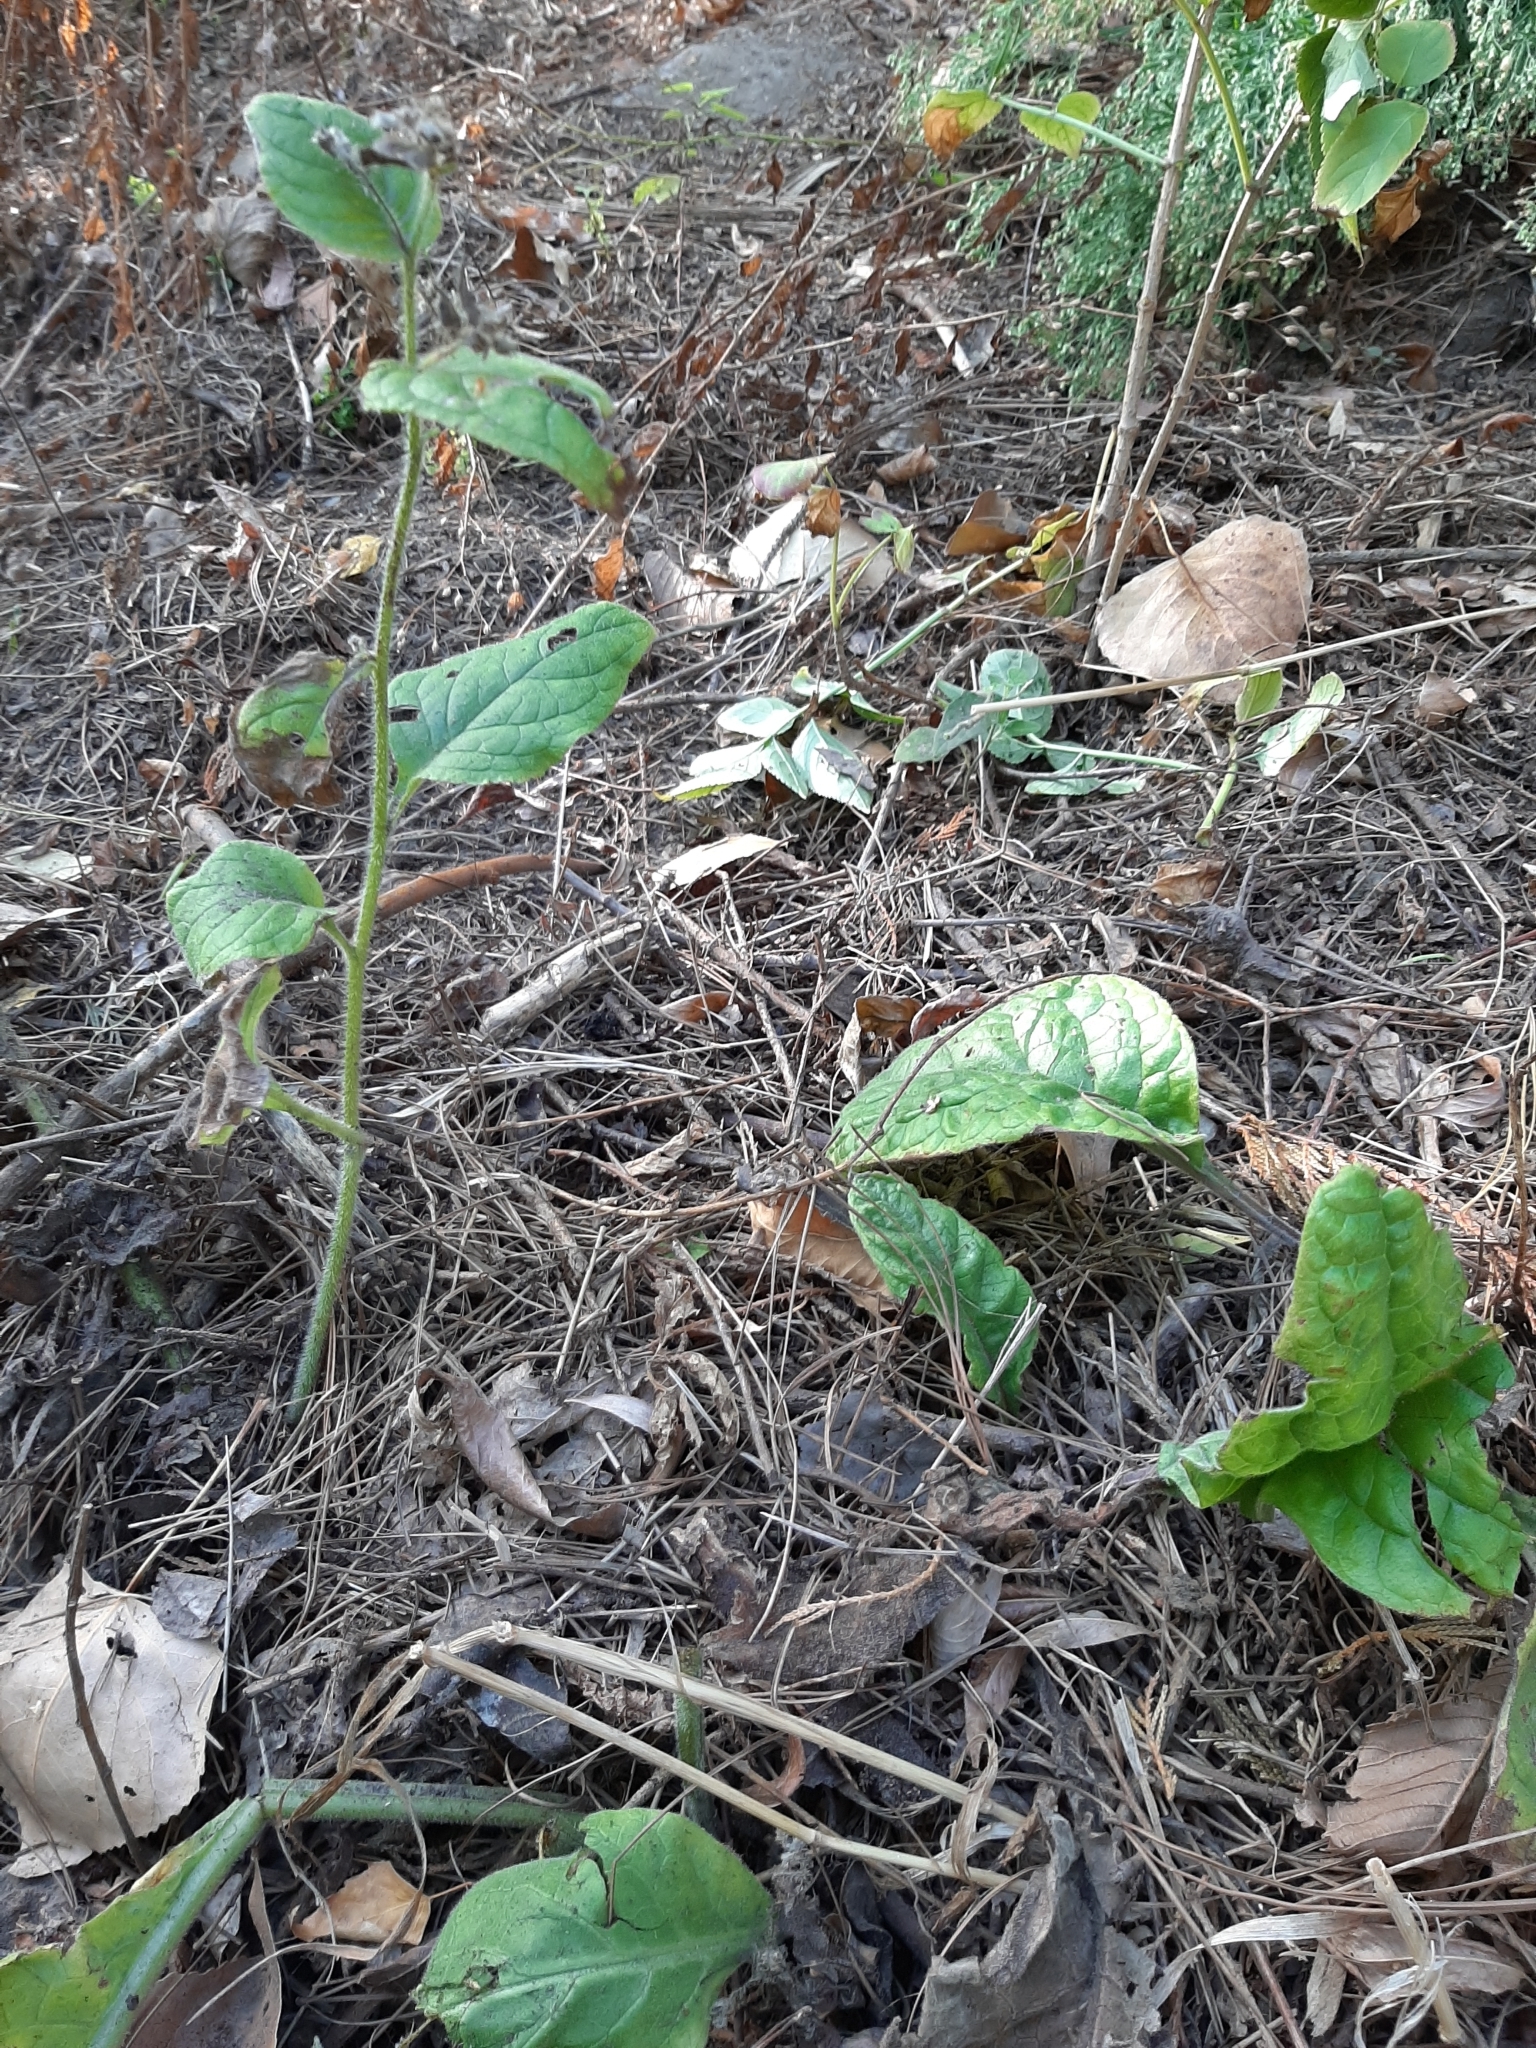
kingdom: Plantae
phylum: Tracheophyta
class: Magnoliopsida
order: Boraginales
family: Boraginaceae
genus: Pentaglottis
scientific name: Pentaglottis sempervirens
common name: Green alkanet
